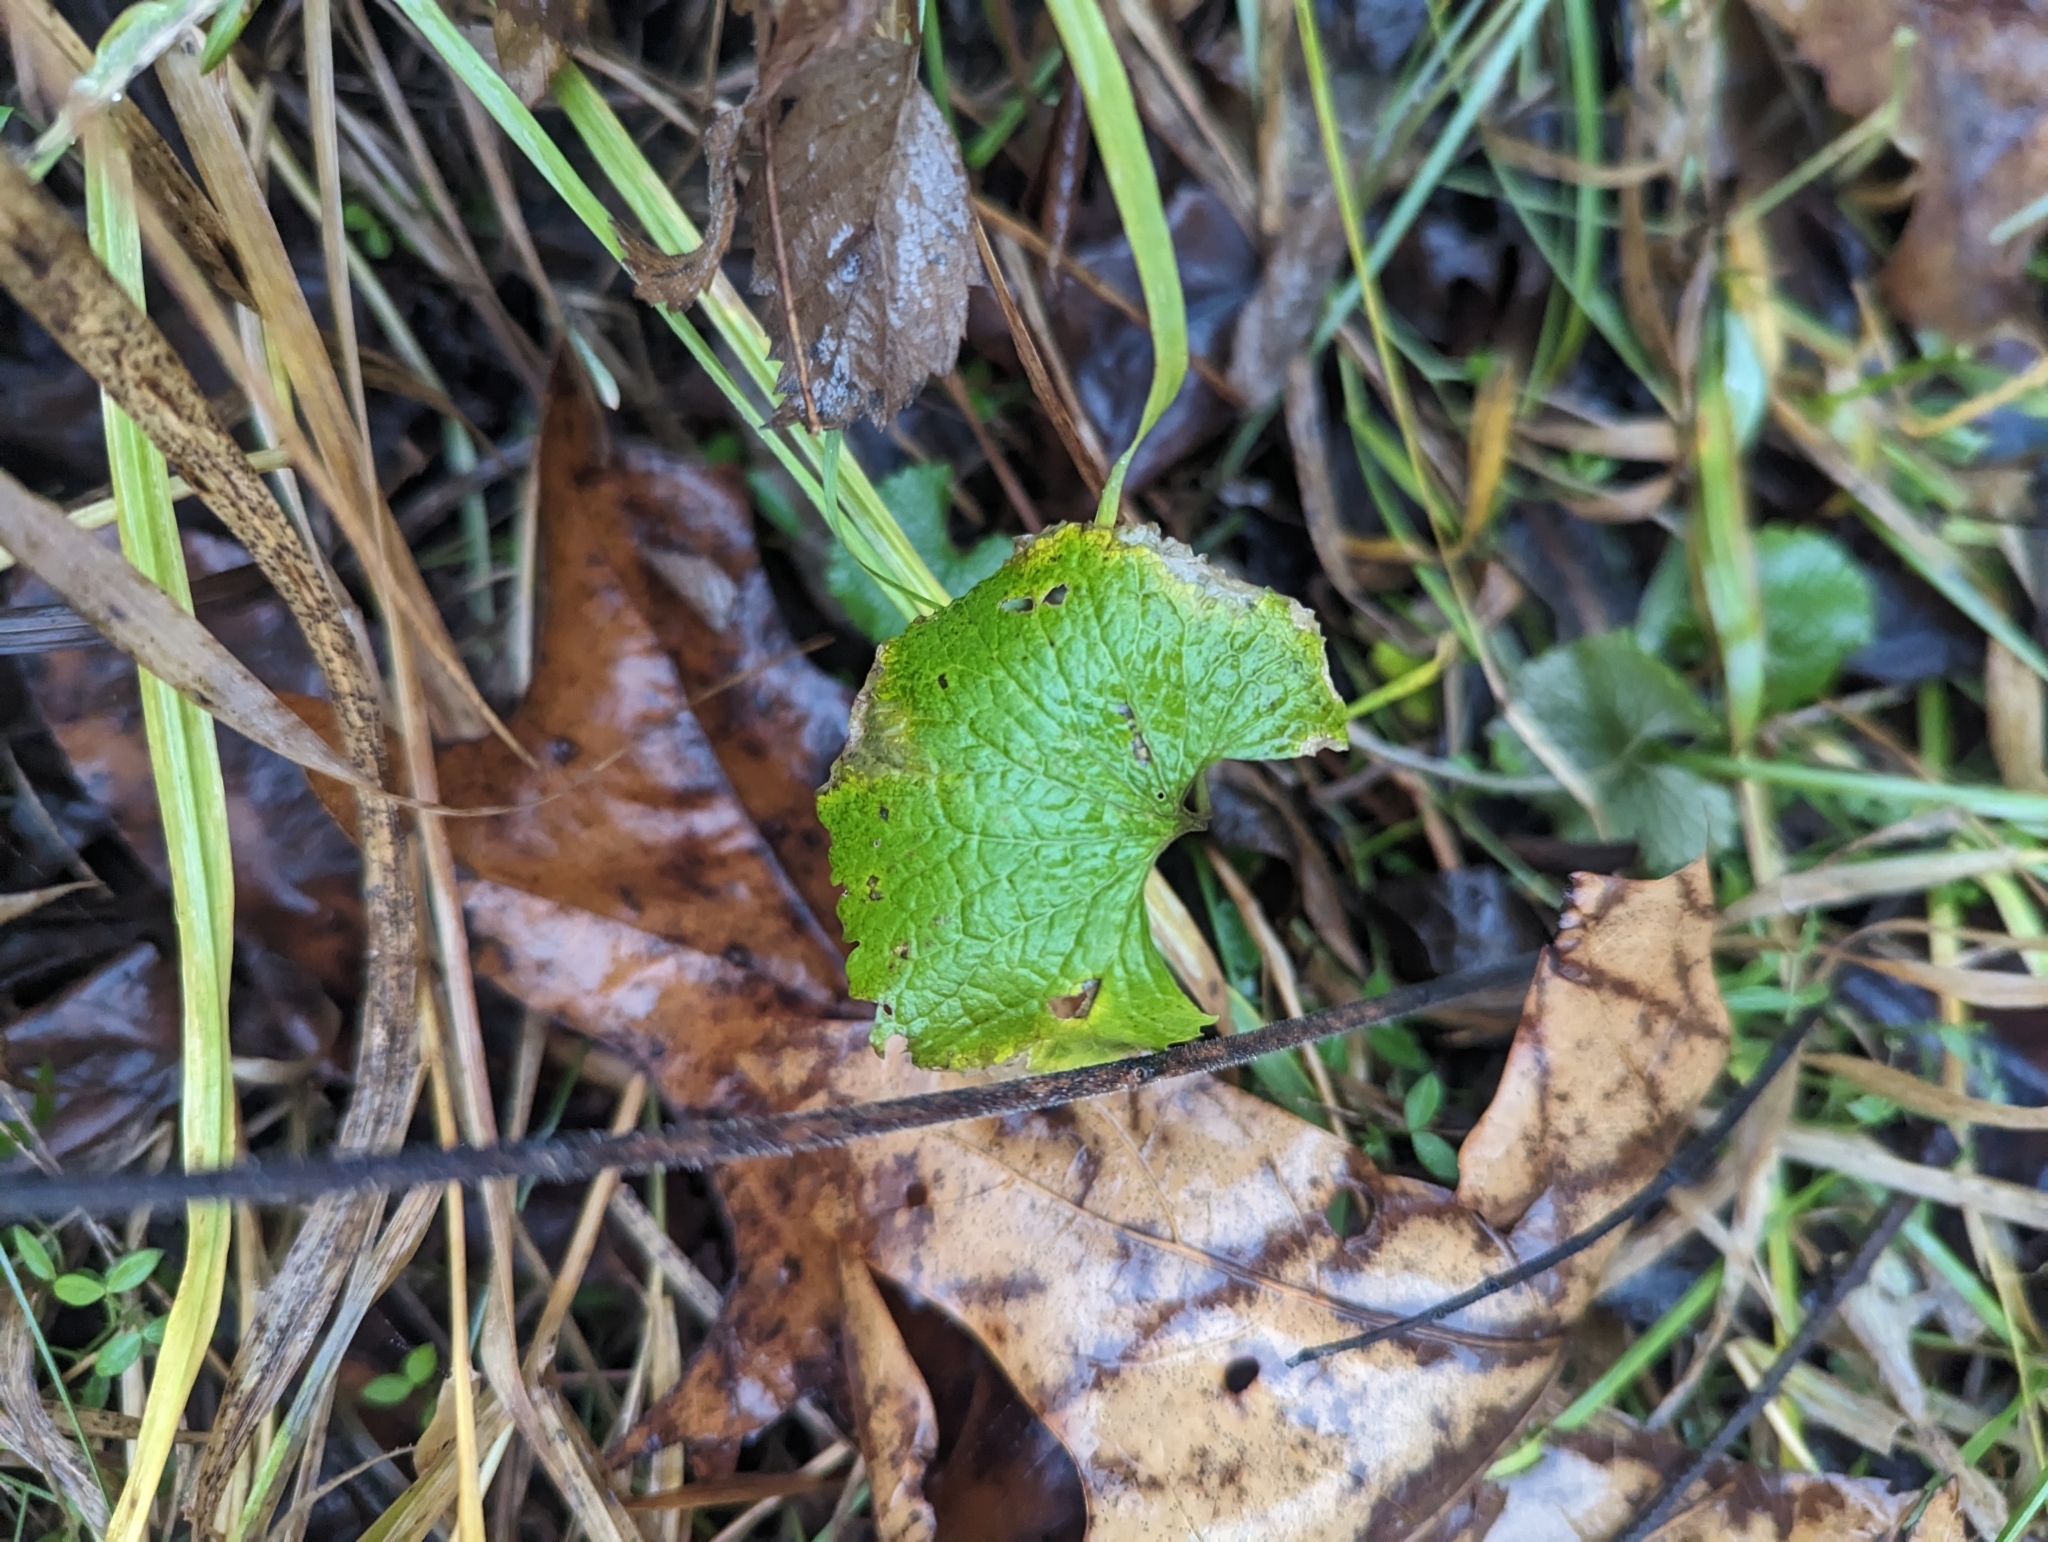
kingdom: Plantae
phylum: Tracheophyta
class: Magnoliopsida
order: Brassicales
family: Brassicaceae
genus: Alliaria
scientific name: Alliaria petiolata
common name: Garlic mustard
